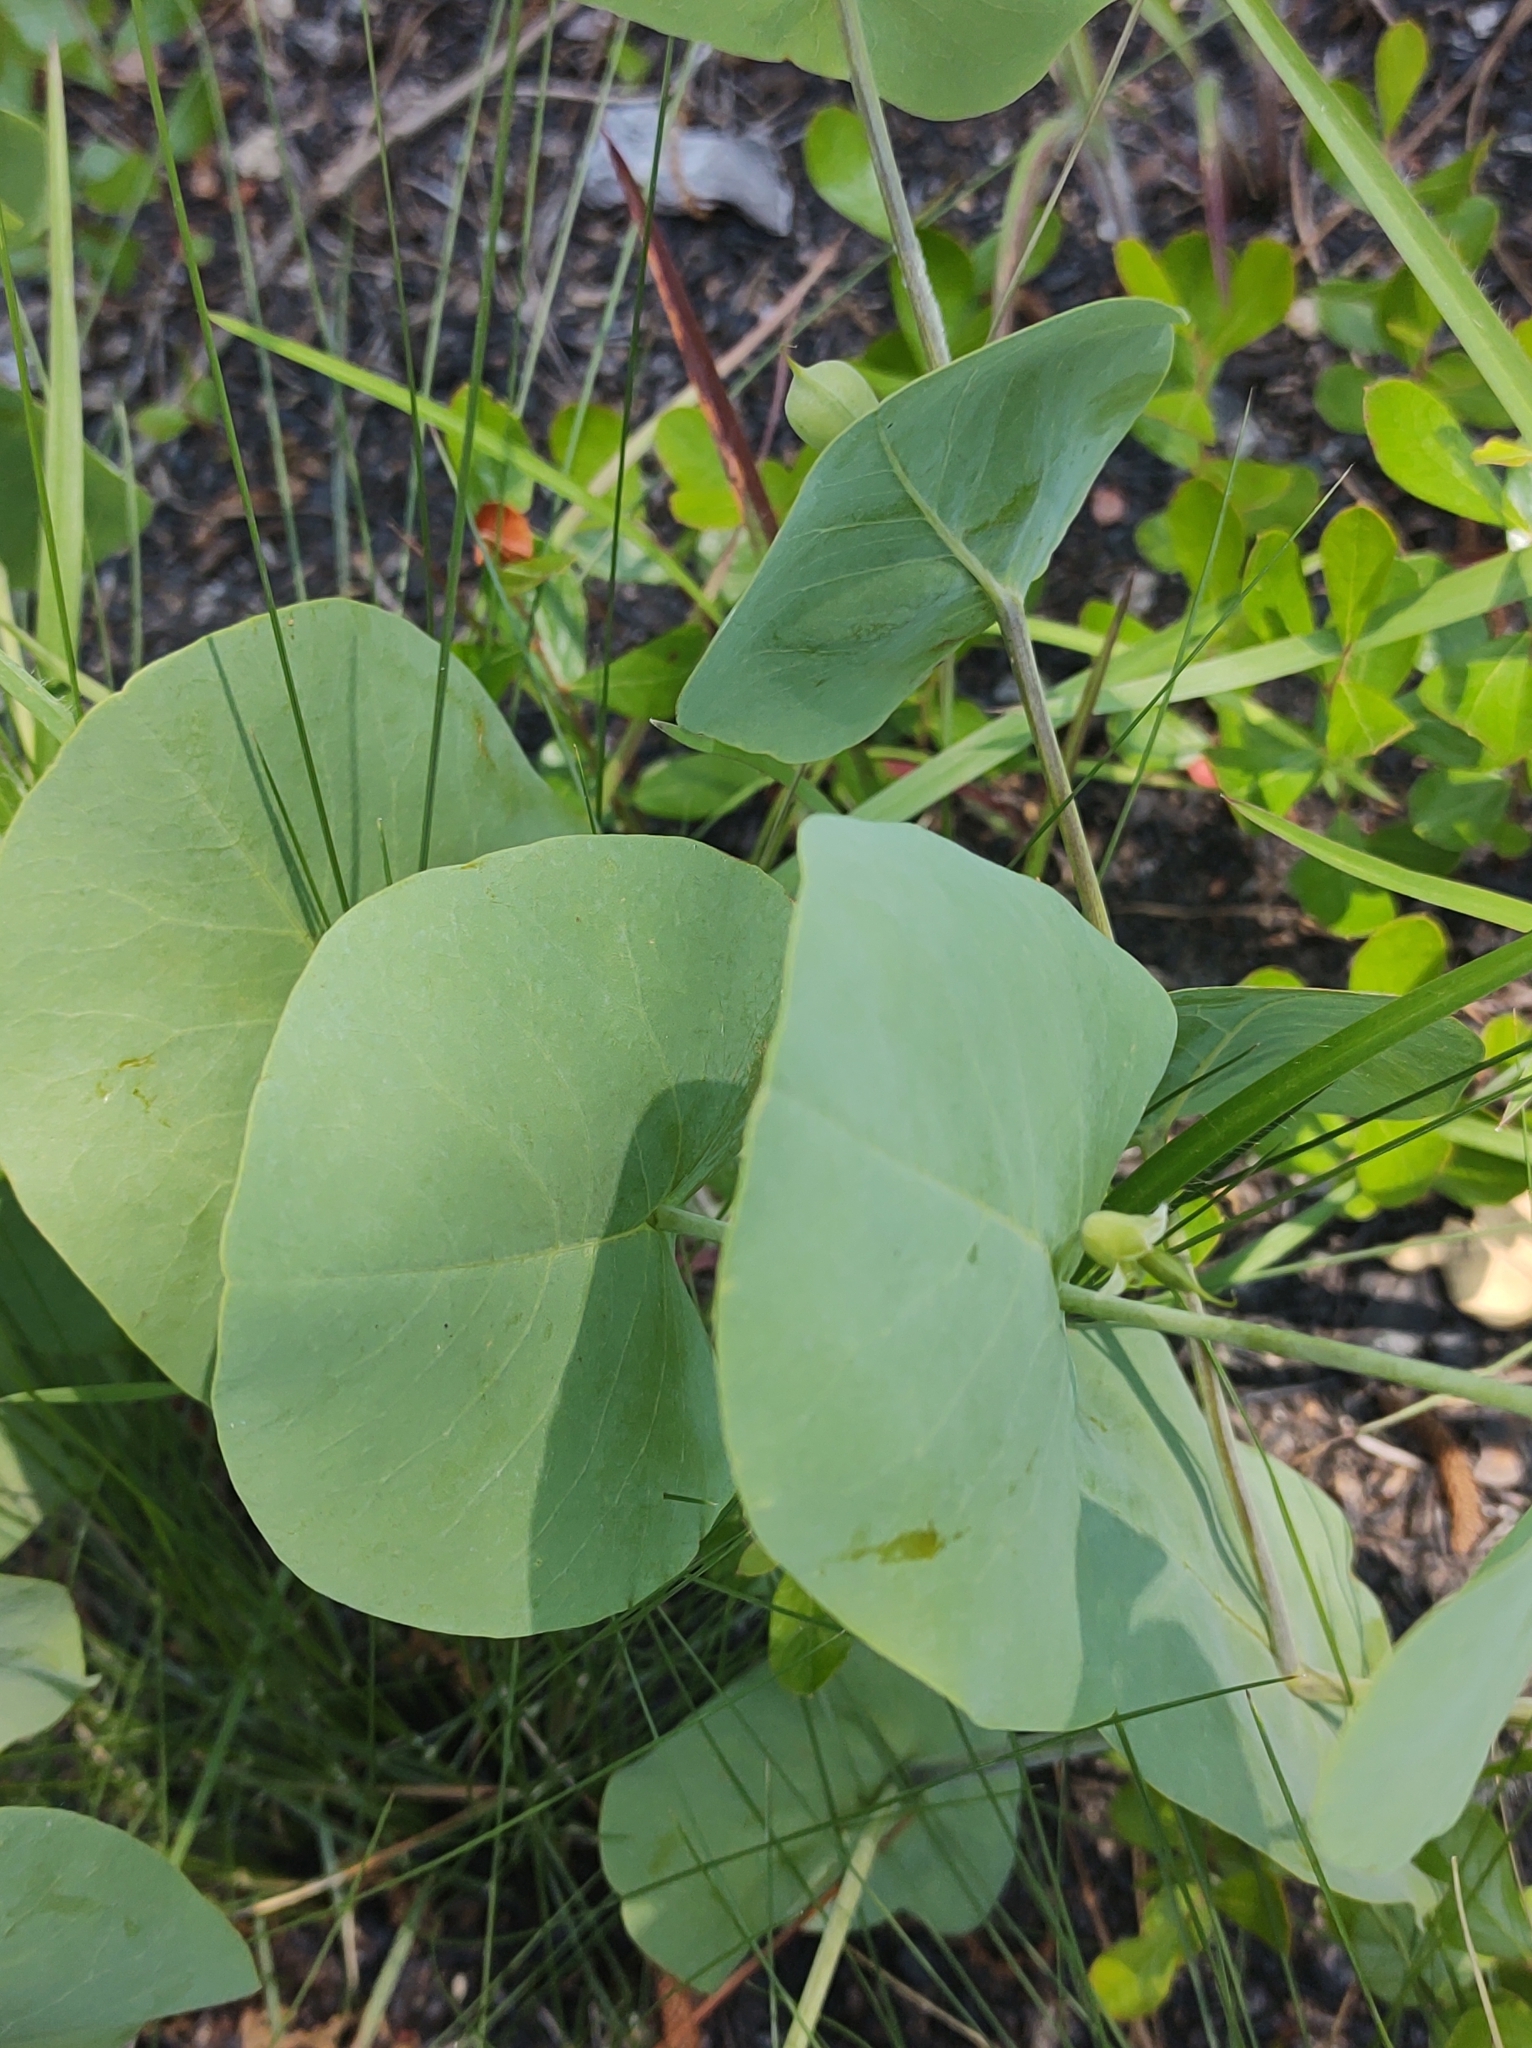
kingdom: Plantae
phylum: Tracheophyta
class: Magnoliopsida
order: Fabales
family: Fabaceae
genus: Baptisia
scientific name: Baptisia perfoliata
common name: Catbells
